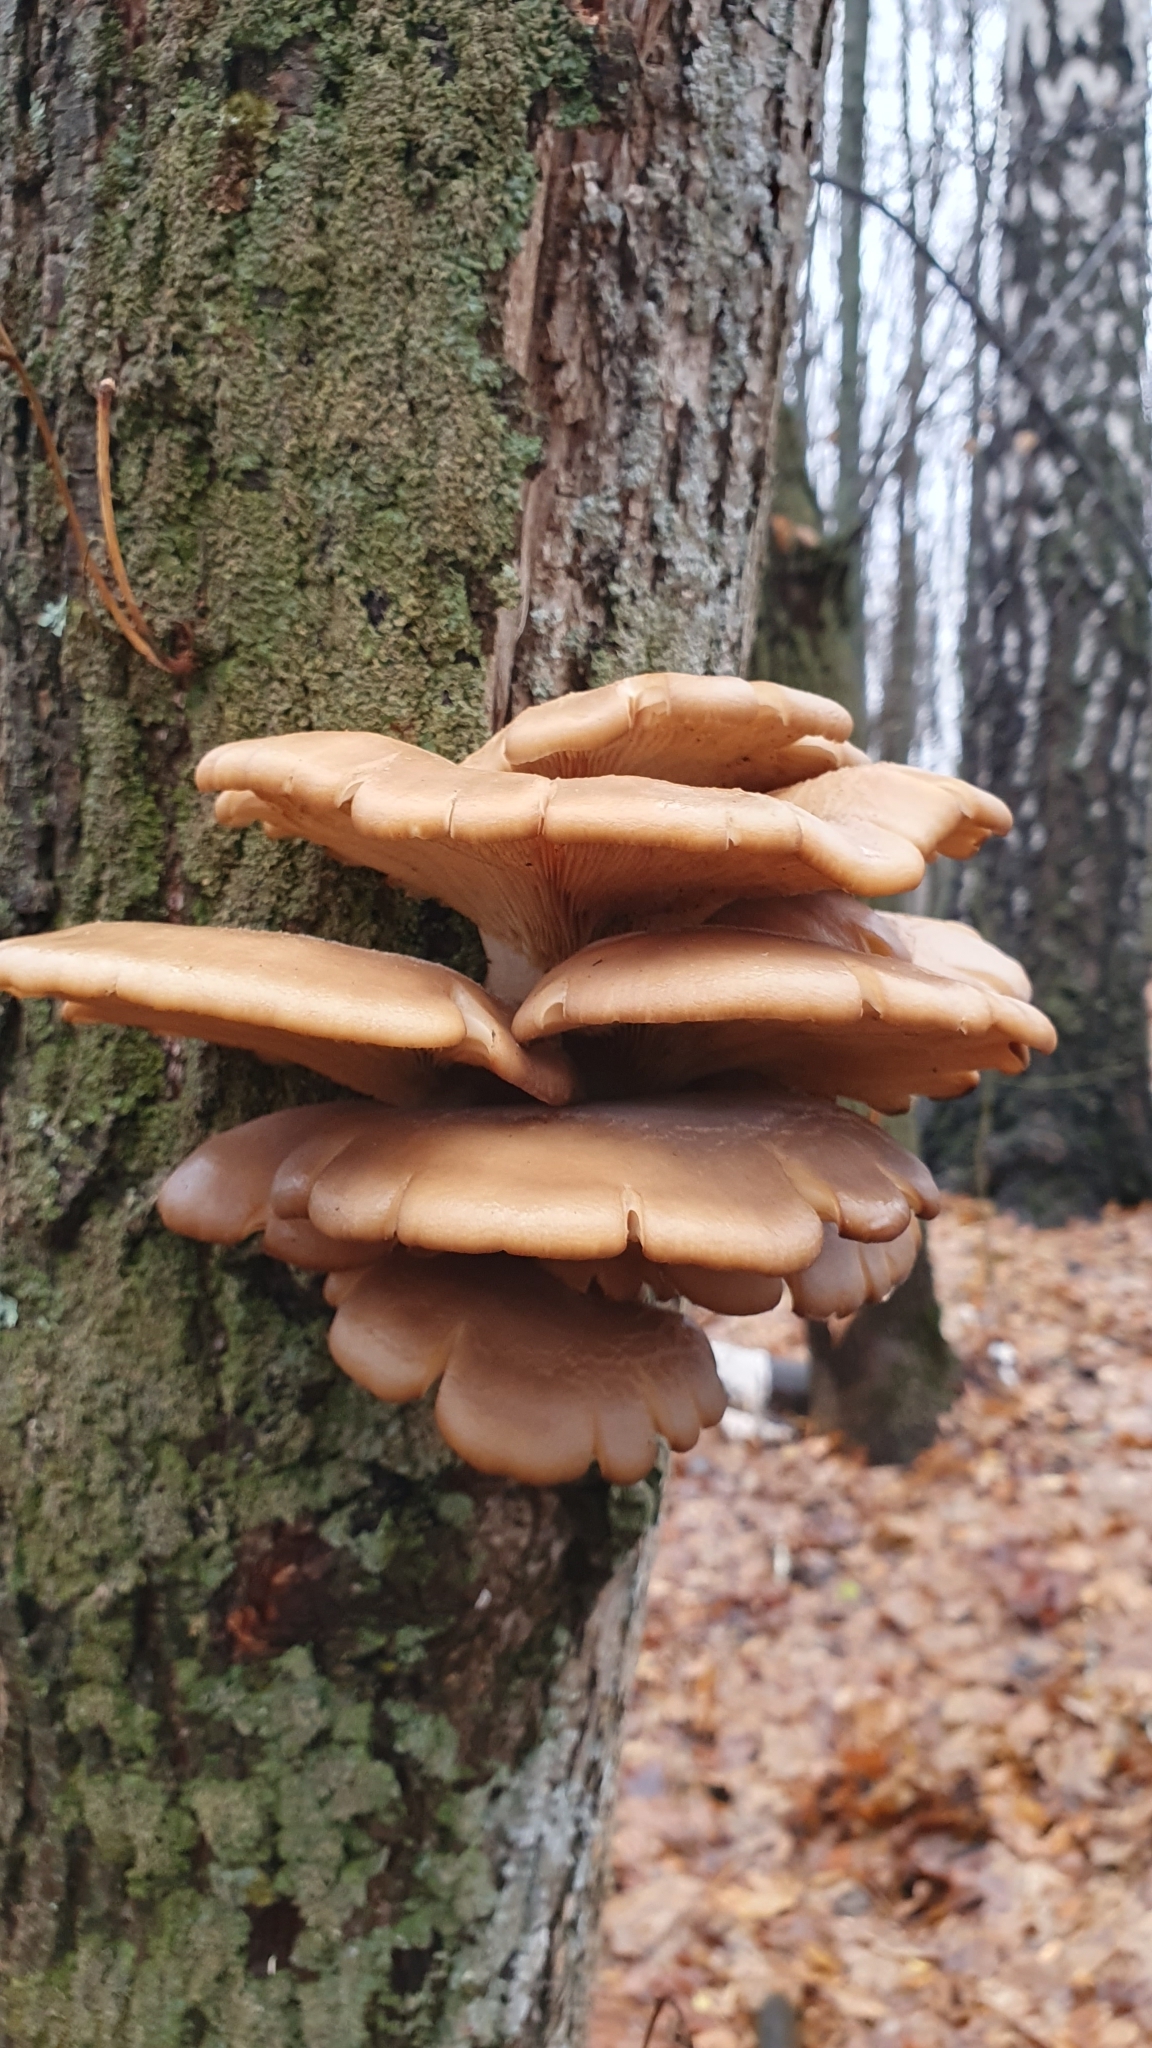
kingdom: Fungi
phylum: Basidiomycota
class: Agaricomycetes
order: Agaricales
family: Pleurotaceae
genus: Pleurotus
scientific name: Pleurotus ostreatus
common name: Oyster mushroom
